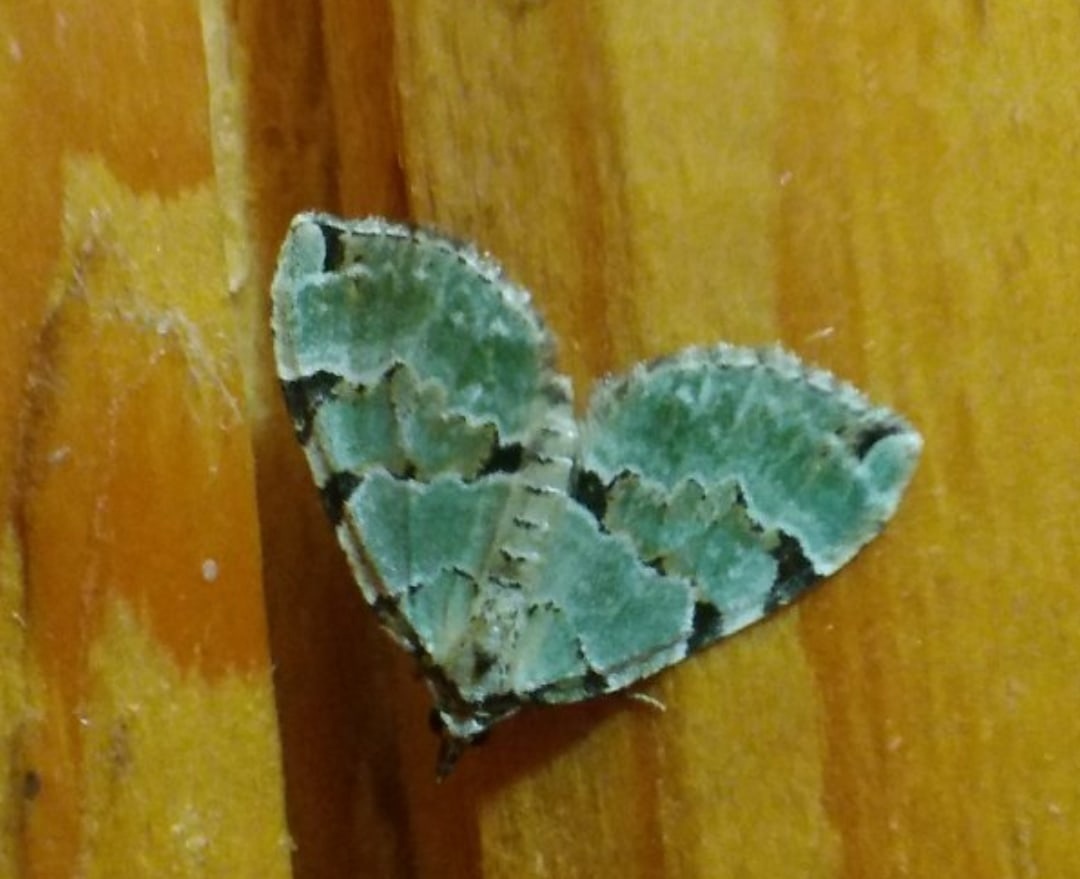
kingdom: Animalia
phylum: Arthropoda
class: Insecta
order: Lepidoptera
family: Geometridae
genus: Colostygia
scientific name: Colostygia pectinataria
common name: Green carpet
